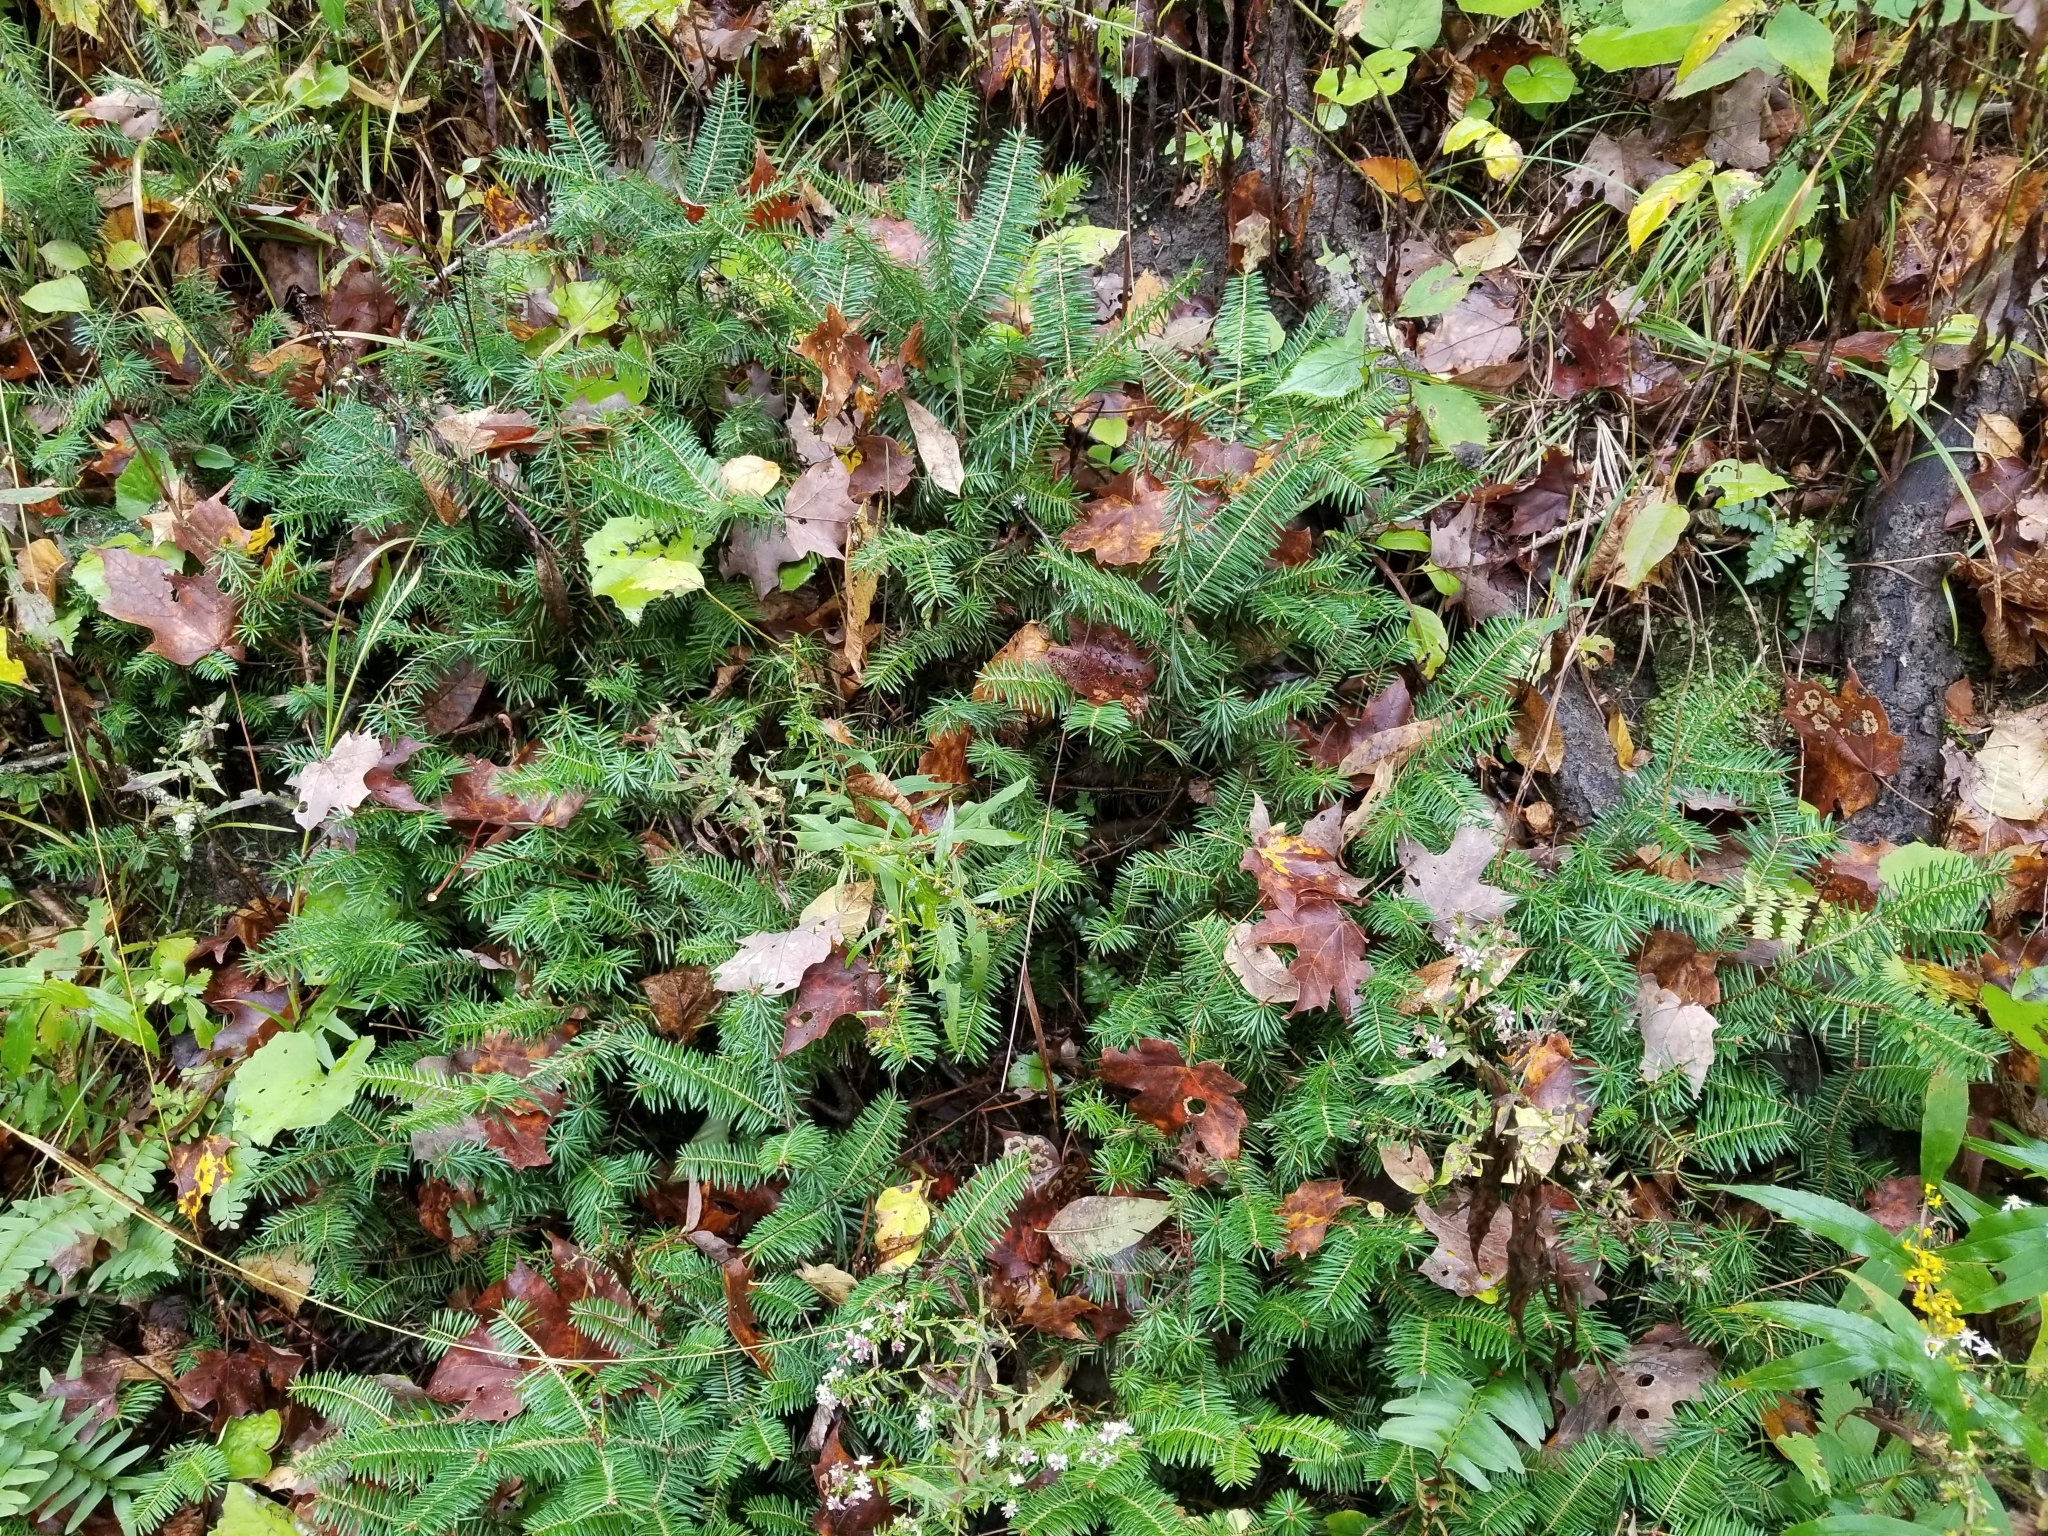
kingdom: Plantae
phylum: Tracheophyta
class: Pinopsida
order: Pinales
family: Pinaceae
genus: Abies
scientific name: Abies balsamea
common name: Balsam fir
